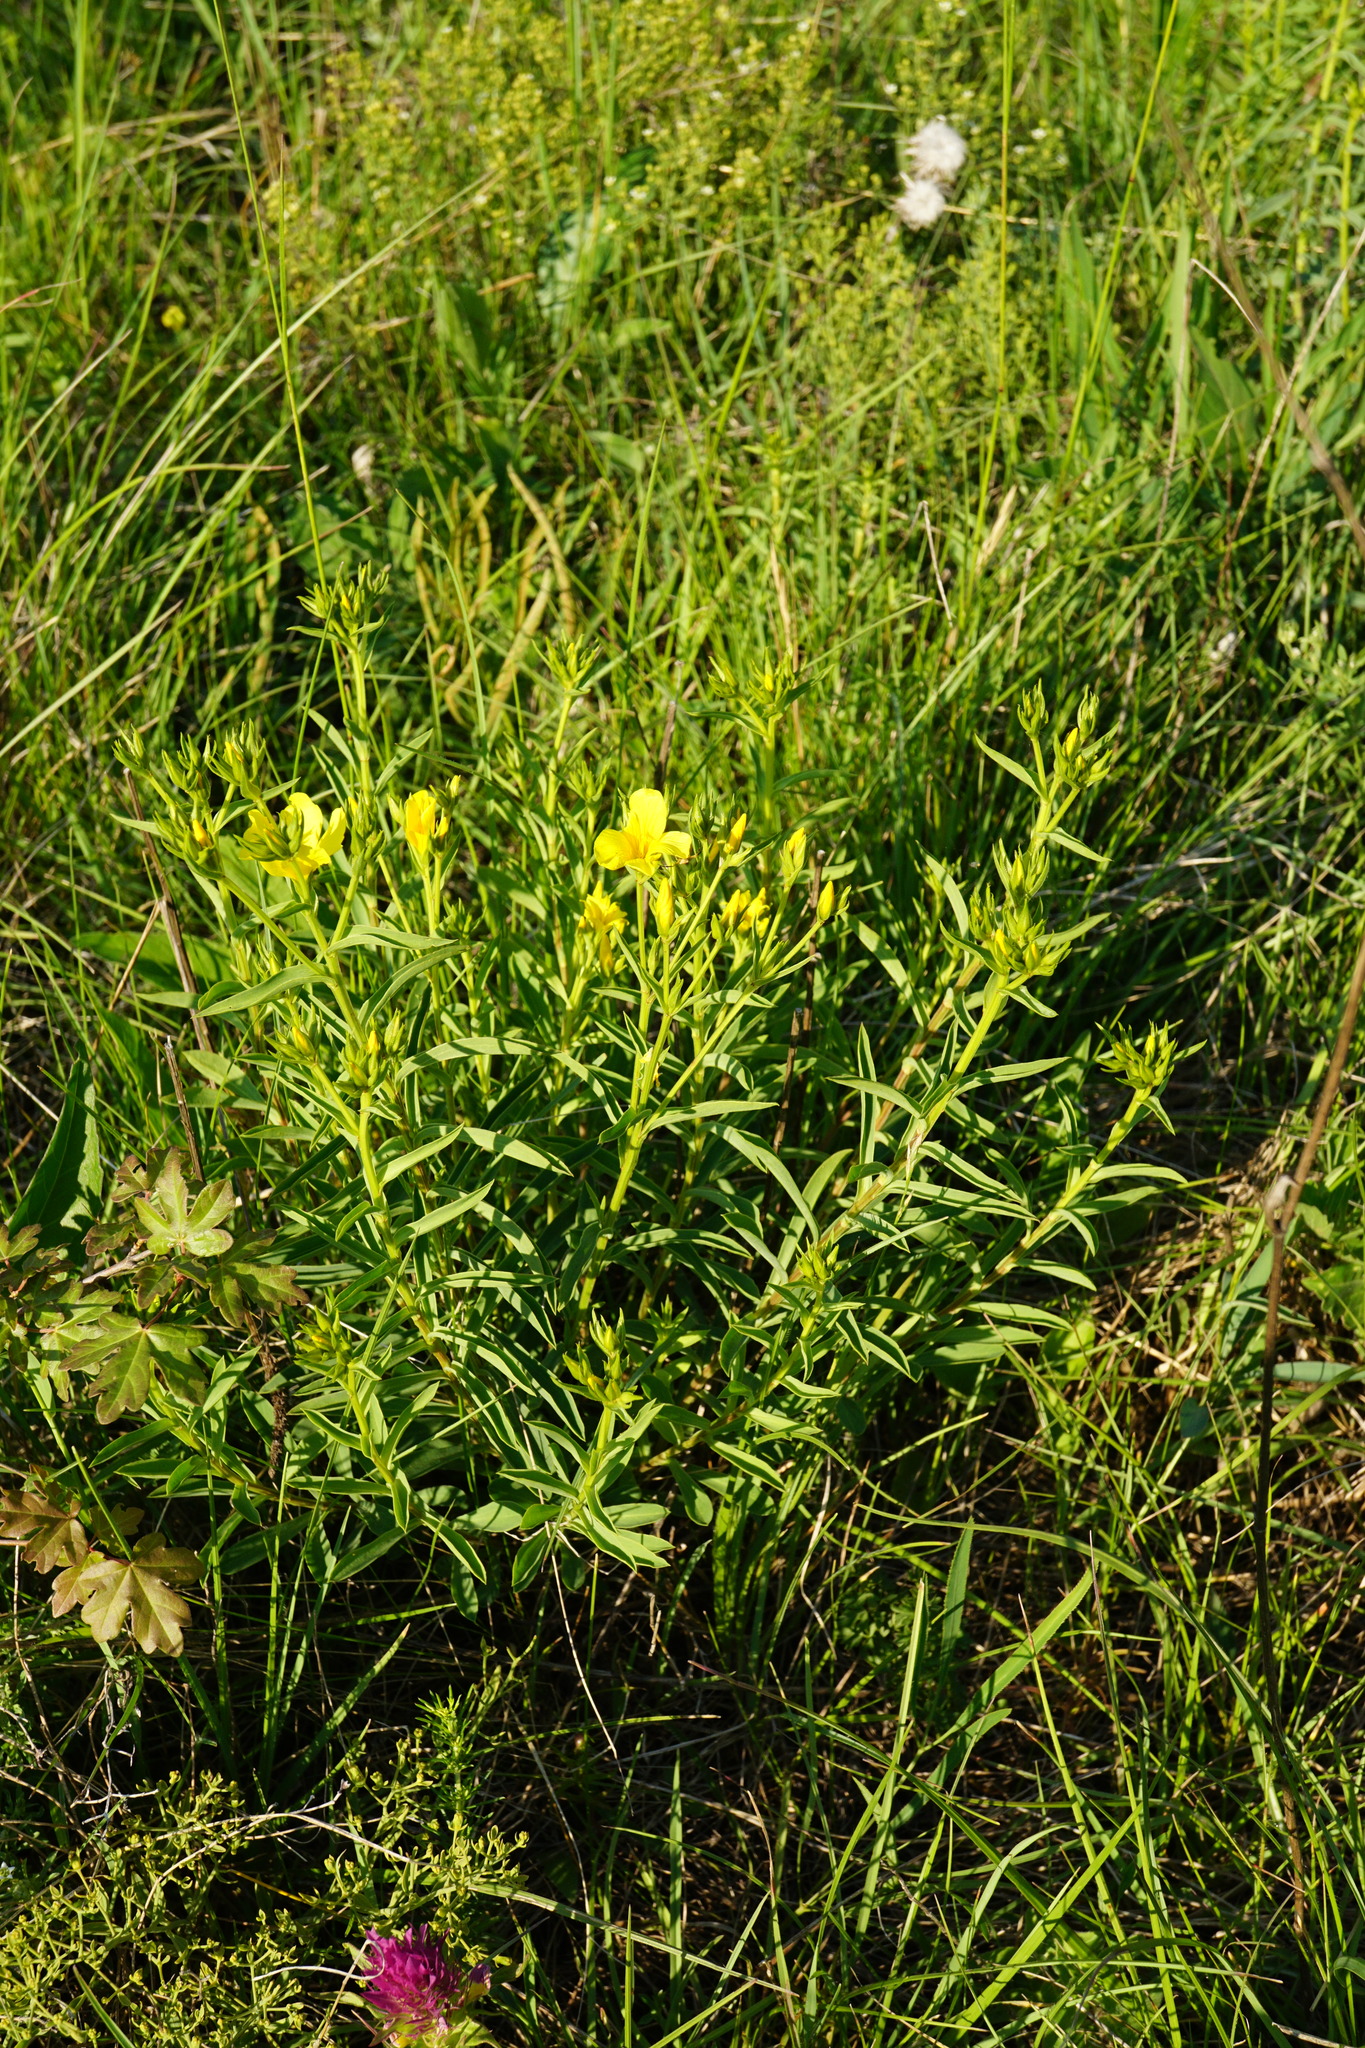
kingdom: Plantae
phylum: Tracheophyta
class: Magnoliopsida
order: Malpighiales
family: Linaceae
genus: Linum
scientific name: Linum flavum
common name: Yellow flax
